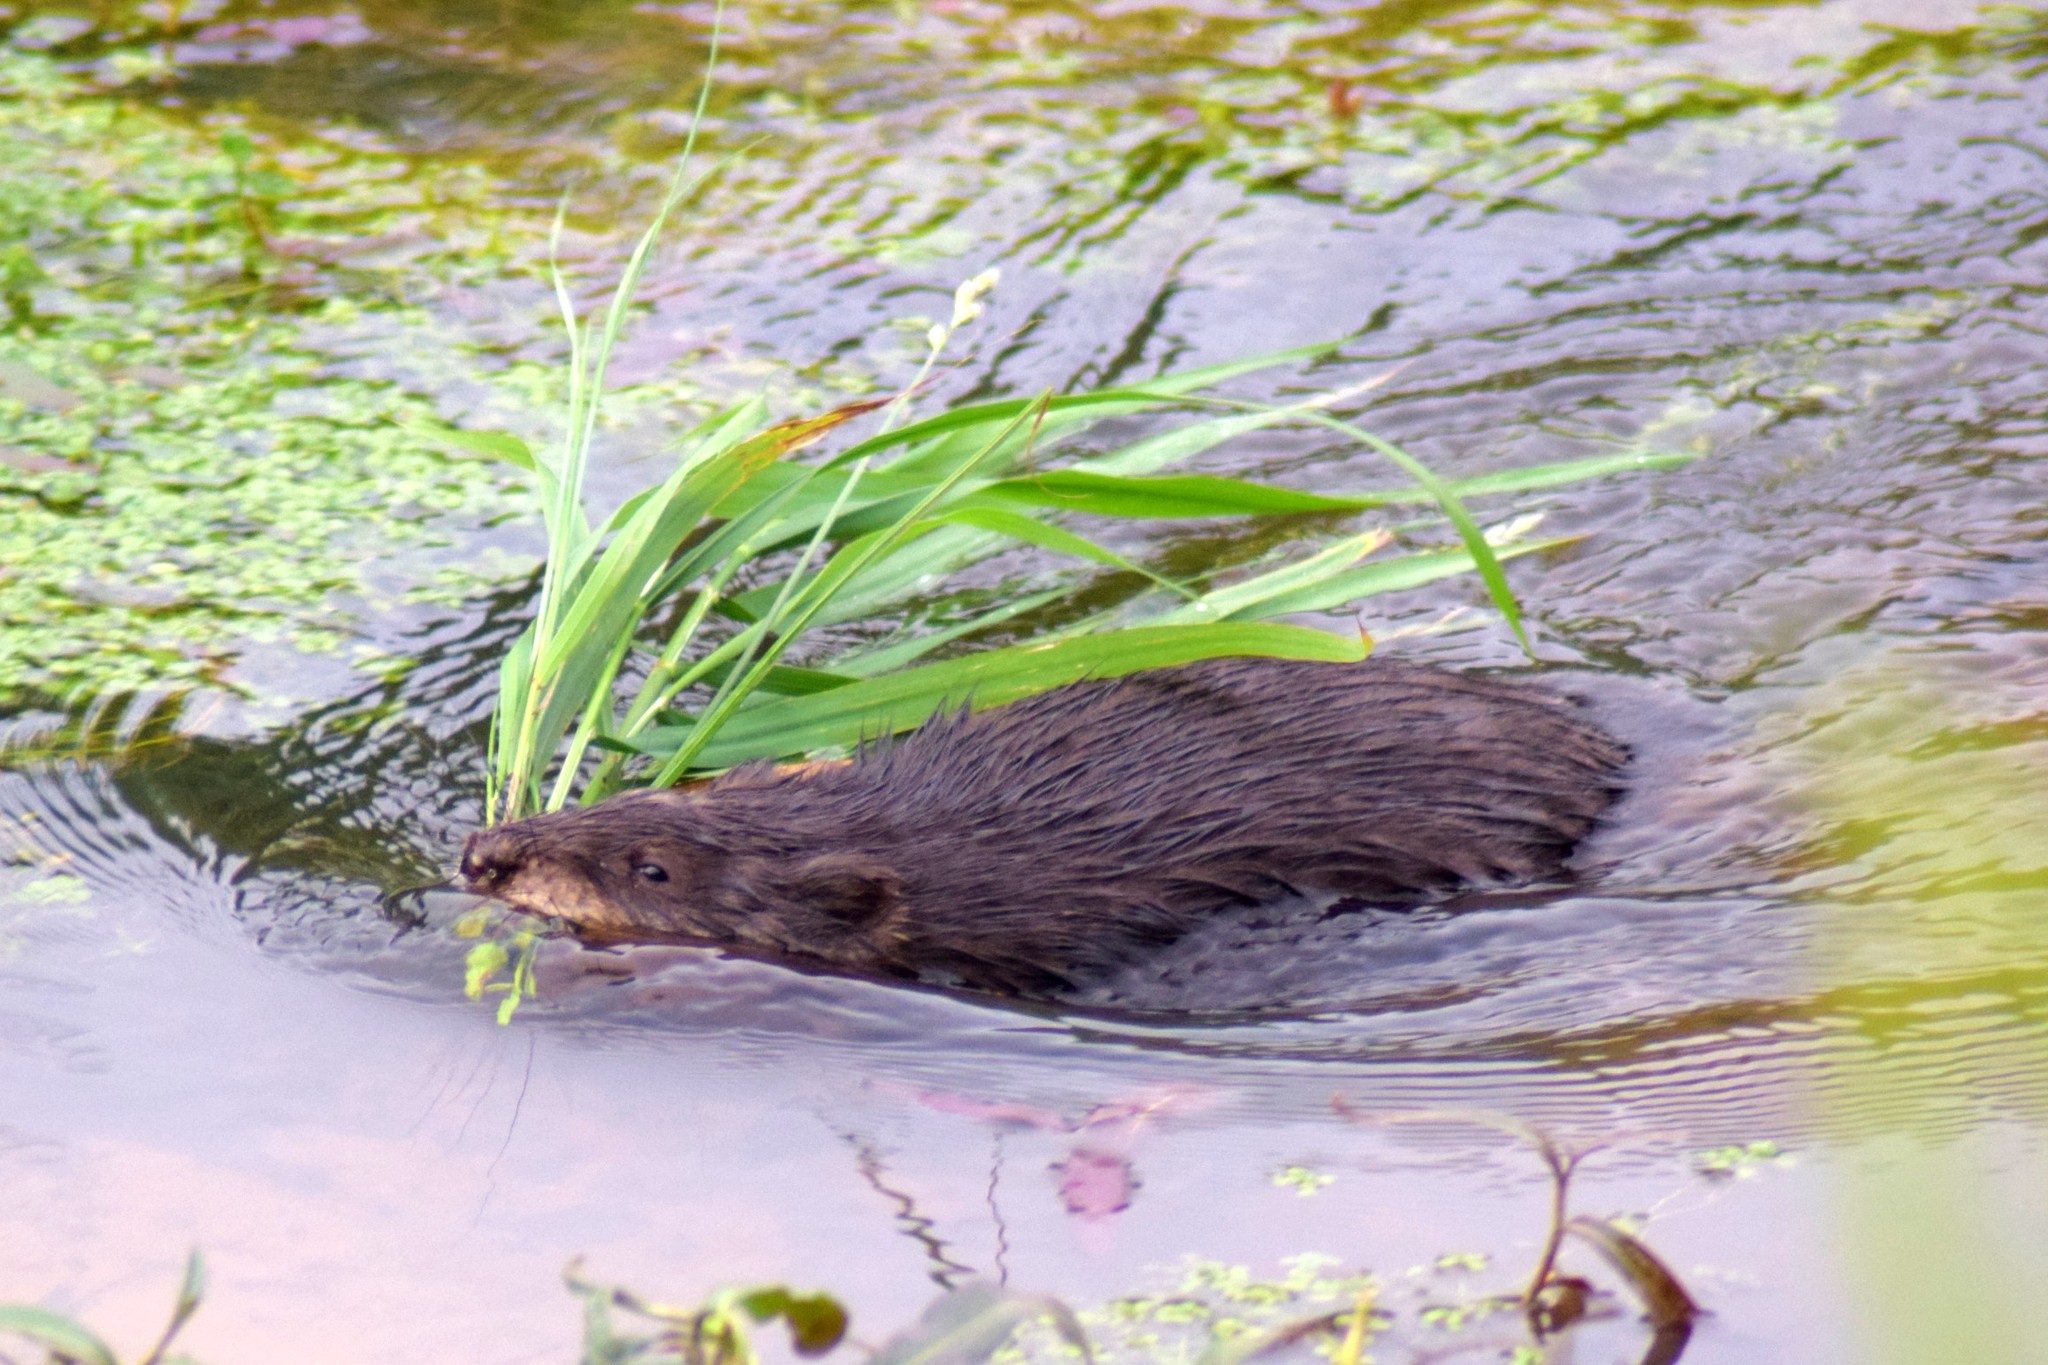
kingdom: Animalia
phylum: Chordata
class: Mammalia
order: Rodentia
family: Cricetidae
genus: Ondatra
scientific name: Ondatra zibethicus
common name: Muskrat
